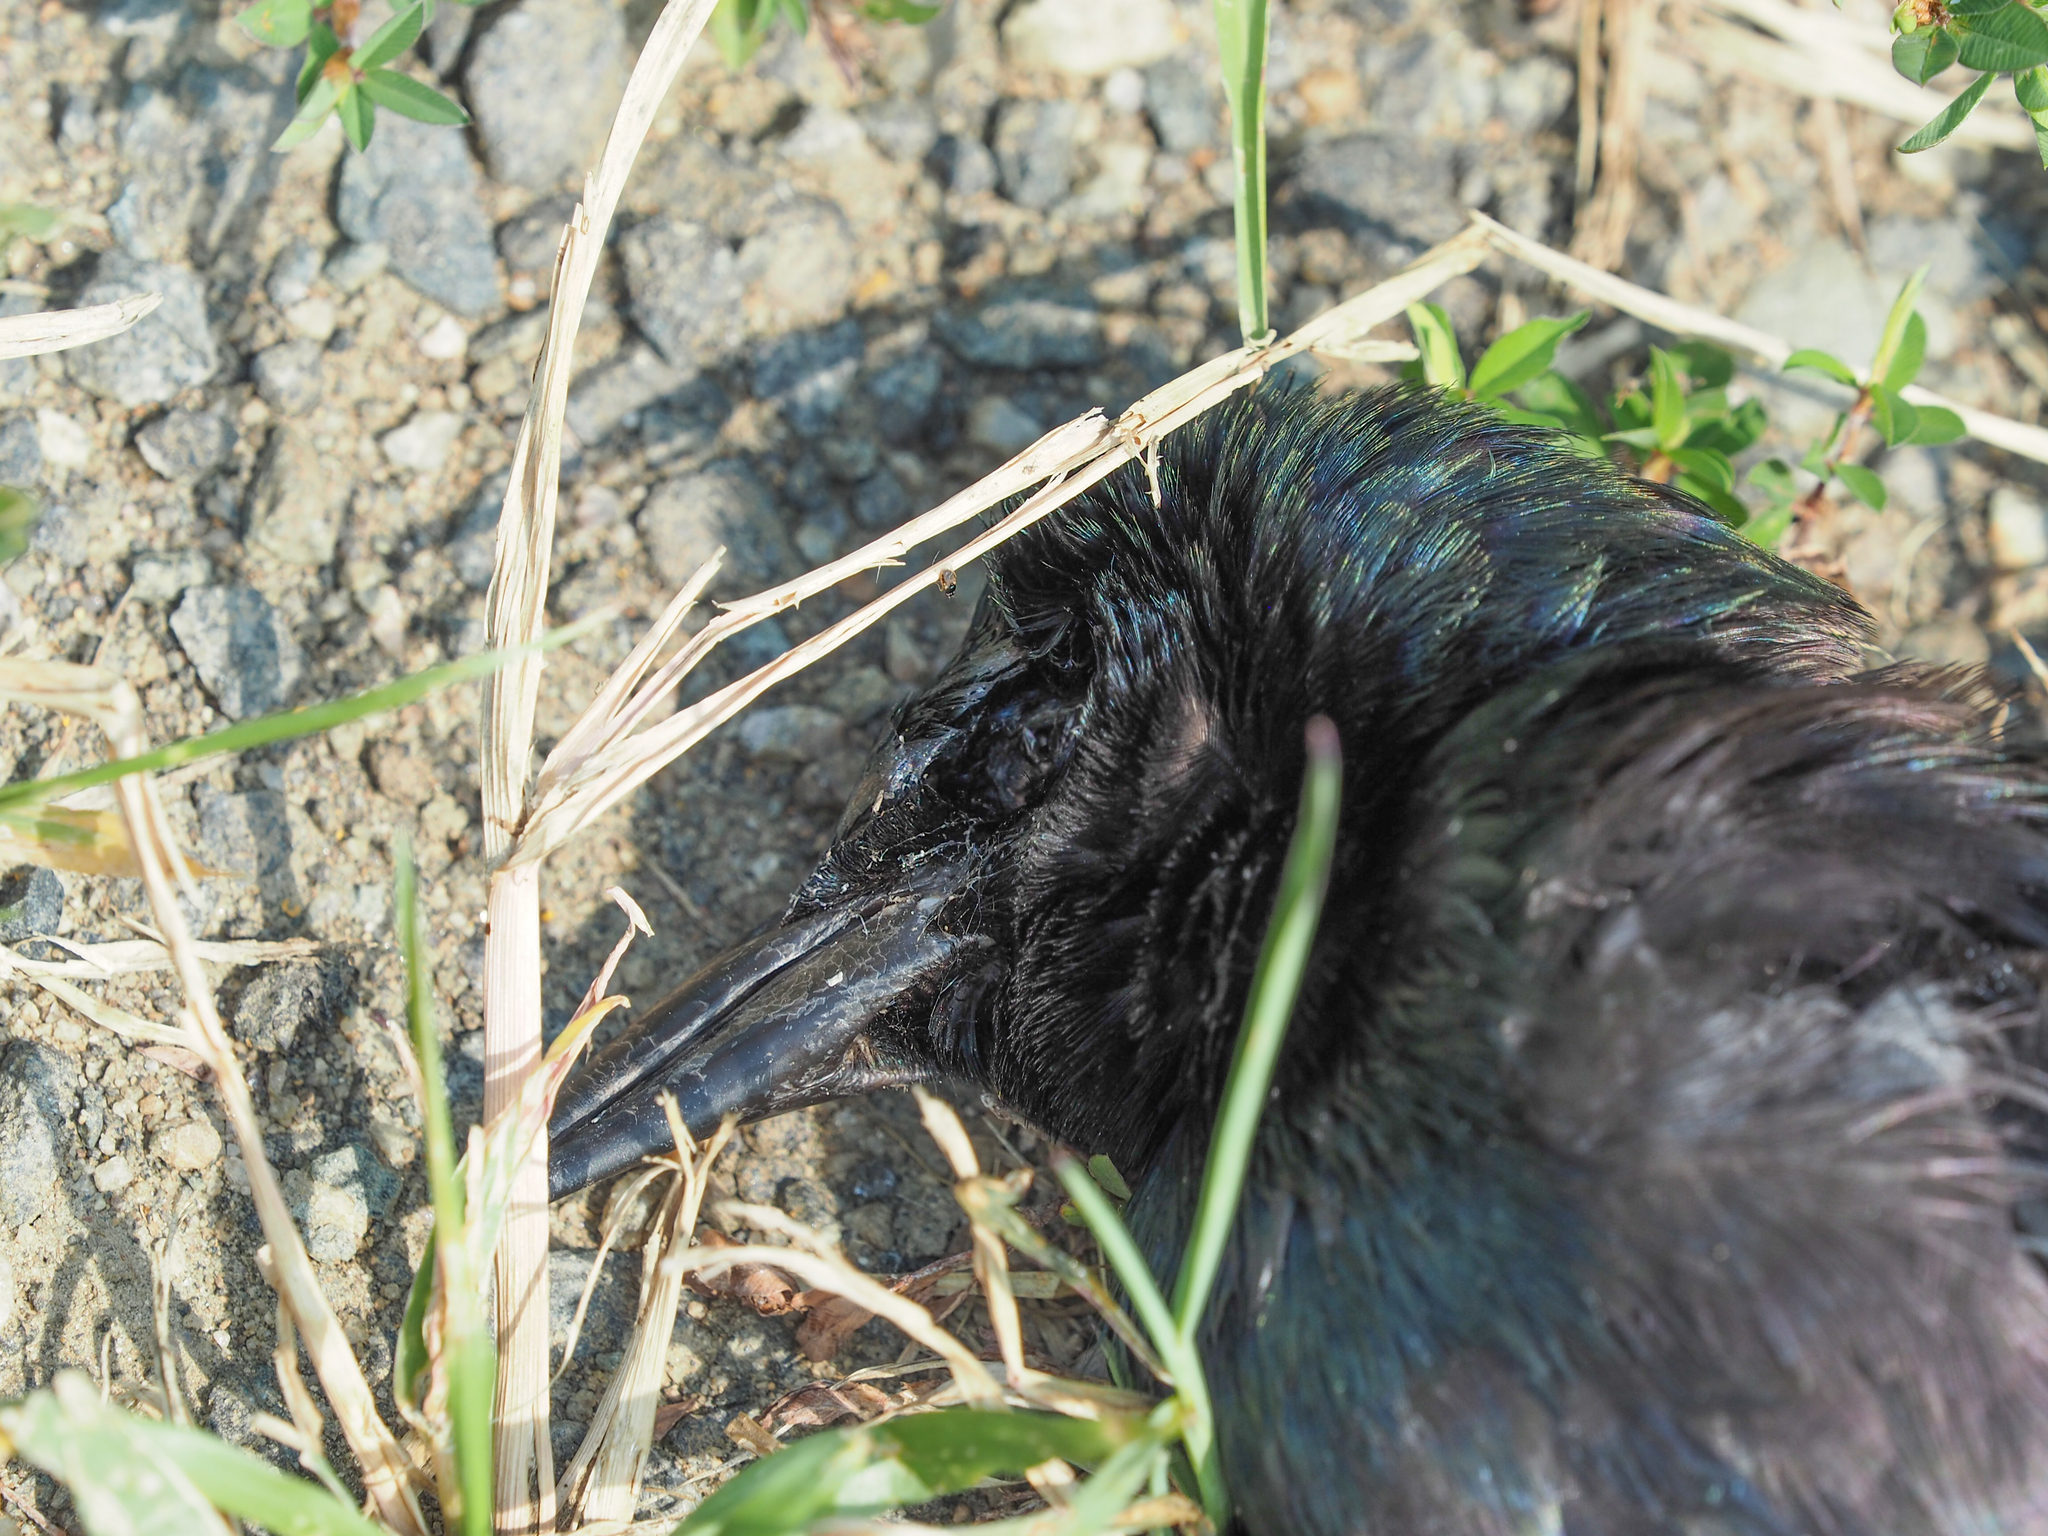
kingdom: Animalia
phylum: Chordata
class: Aves
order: Passeriformes
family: Corvidae
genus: Corvus
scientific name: Corvus
